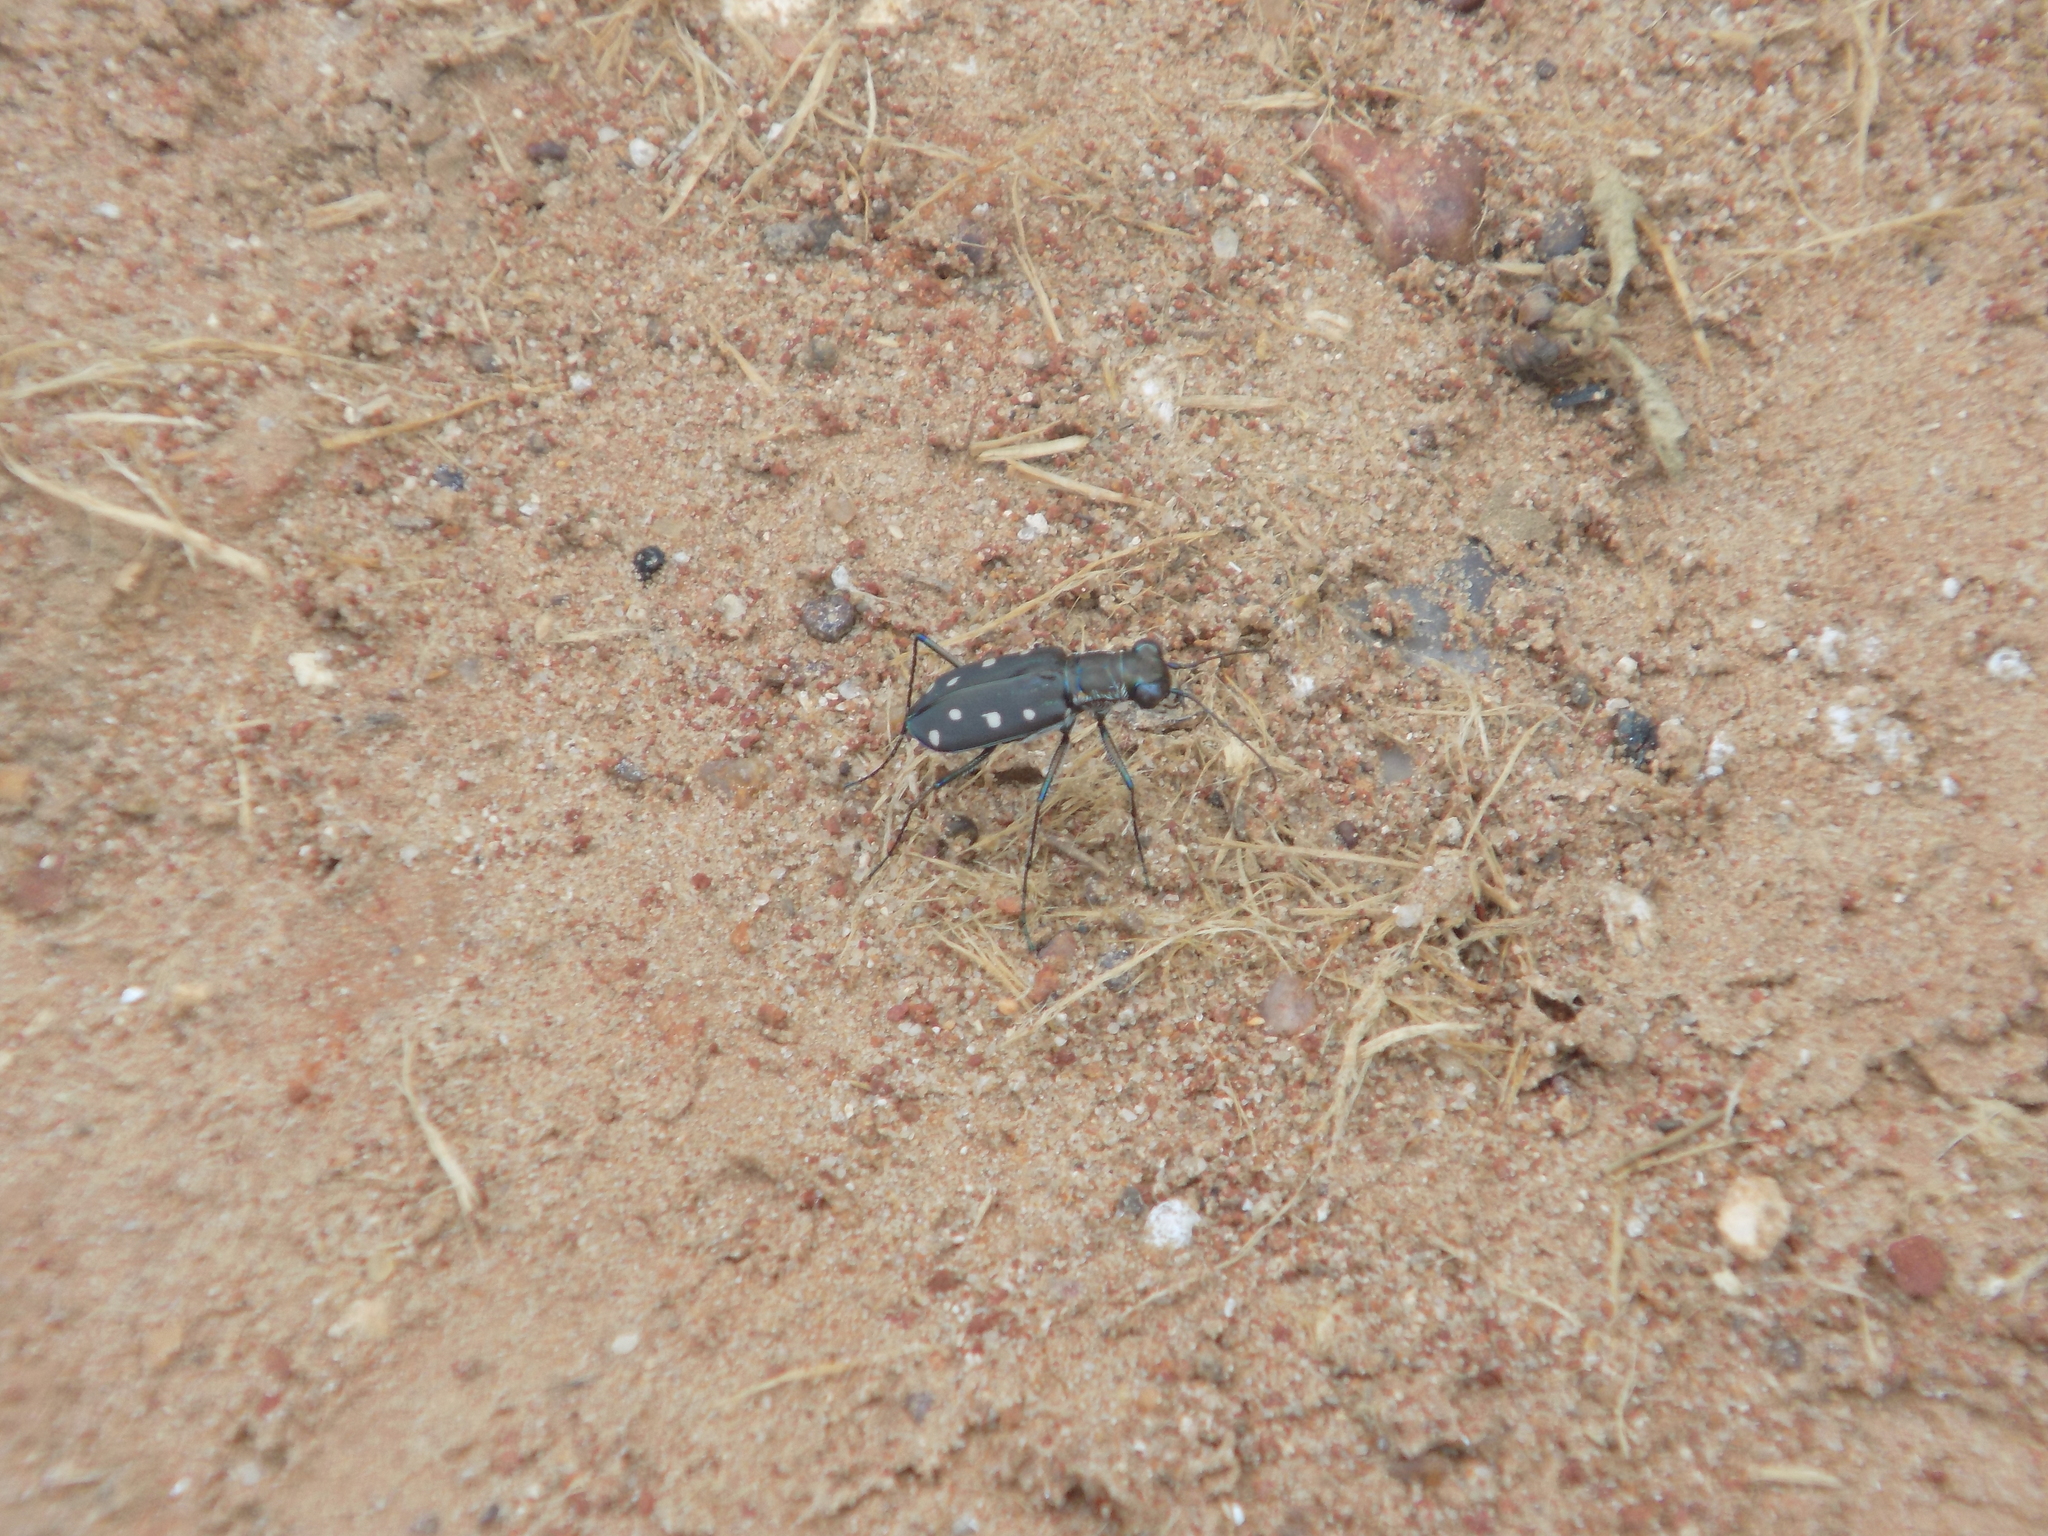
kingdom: Animalia
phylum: Arthropoda
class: Insecta
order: Coleoptera
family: Carabidae
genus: Cicindela
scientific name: Cicindela ocellata
